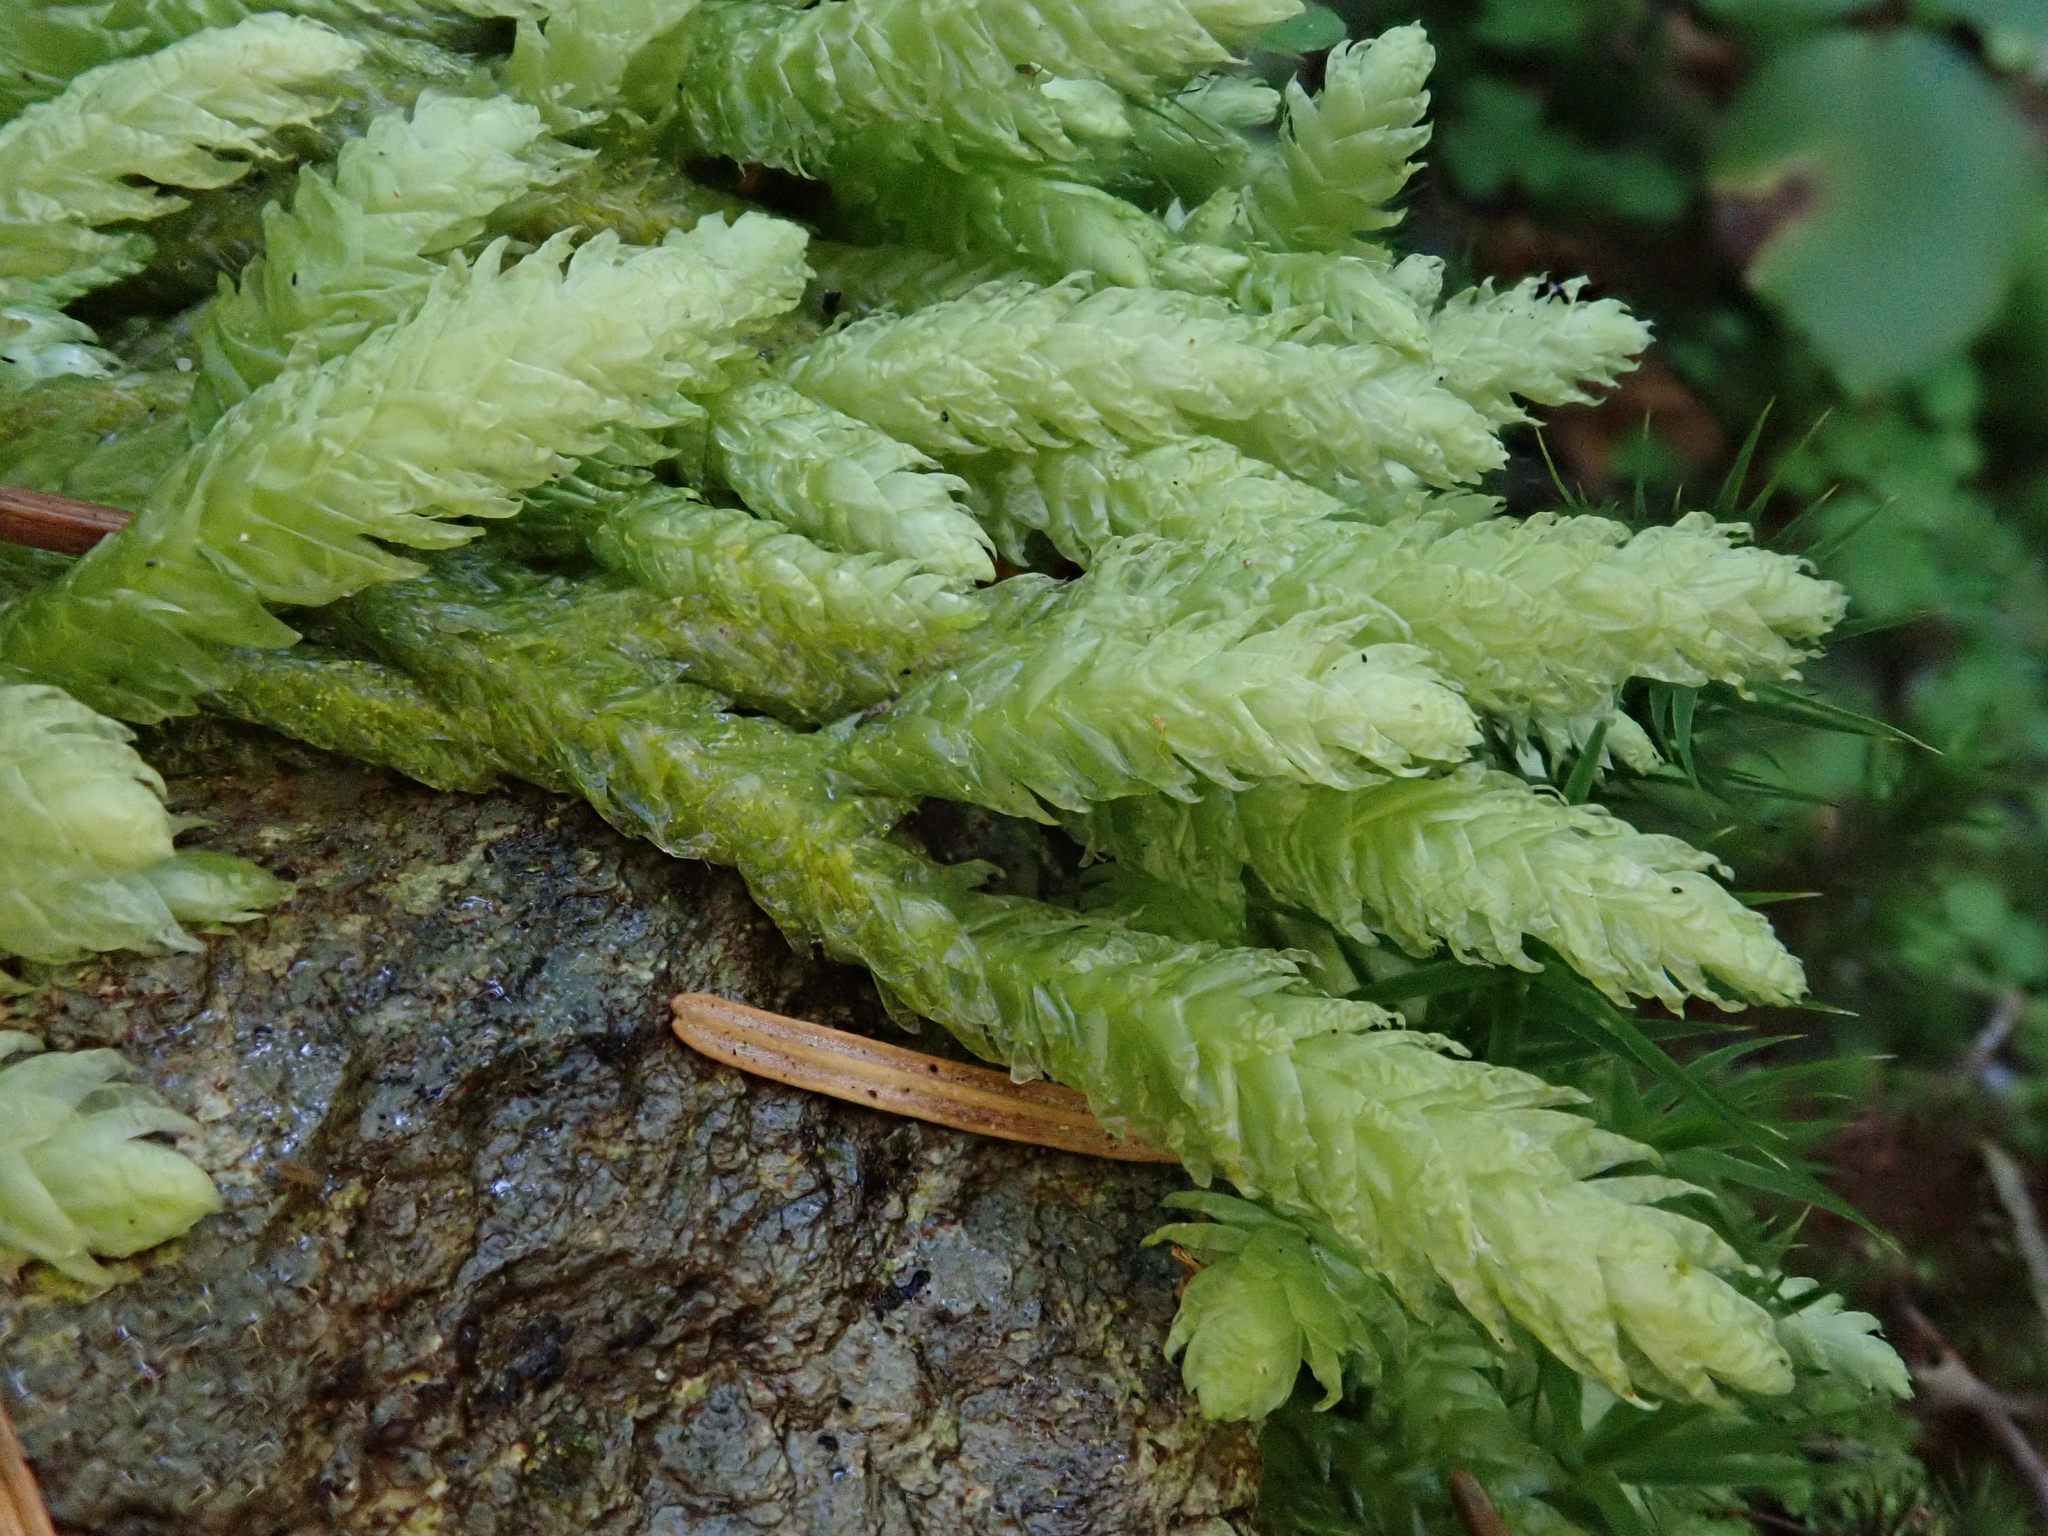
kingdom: Plantae
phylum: Bryophyta
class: Bryopsida
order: Hypnales
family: Plagiotheciaceae
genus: Plagiothecium
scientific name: Plagiothecium undulatum
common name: Waved silk-moss
